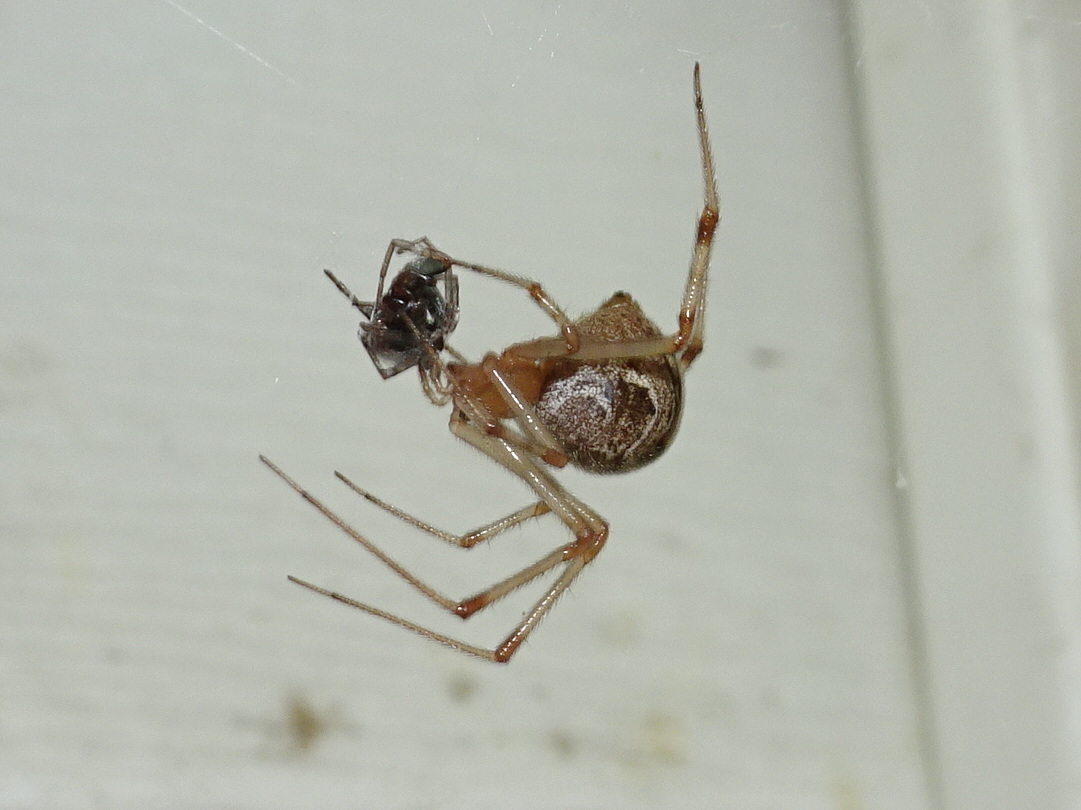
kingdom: Animalia
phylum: Arthropoda
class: Arachnida
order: Araneae
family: Theridiidae
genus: Parasteatoda
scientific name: Parasteatoda tepidariorum
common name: Common house spider
